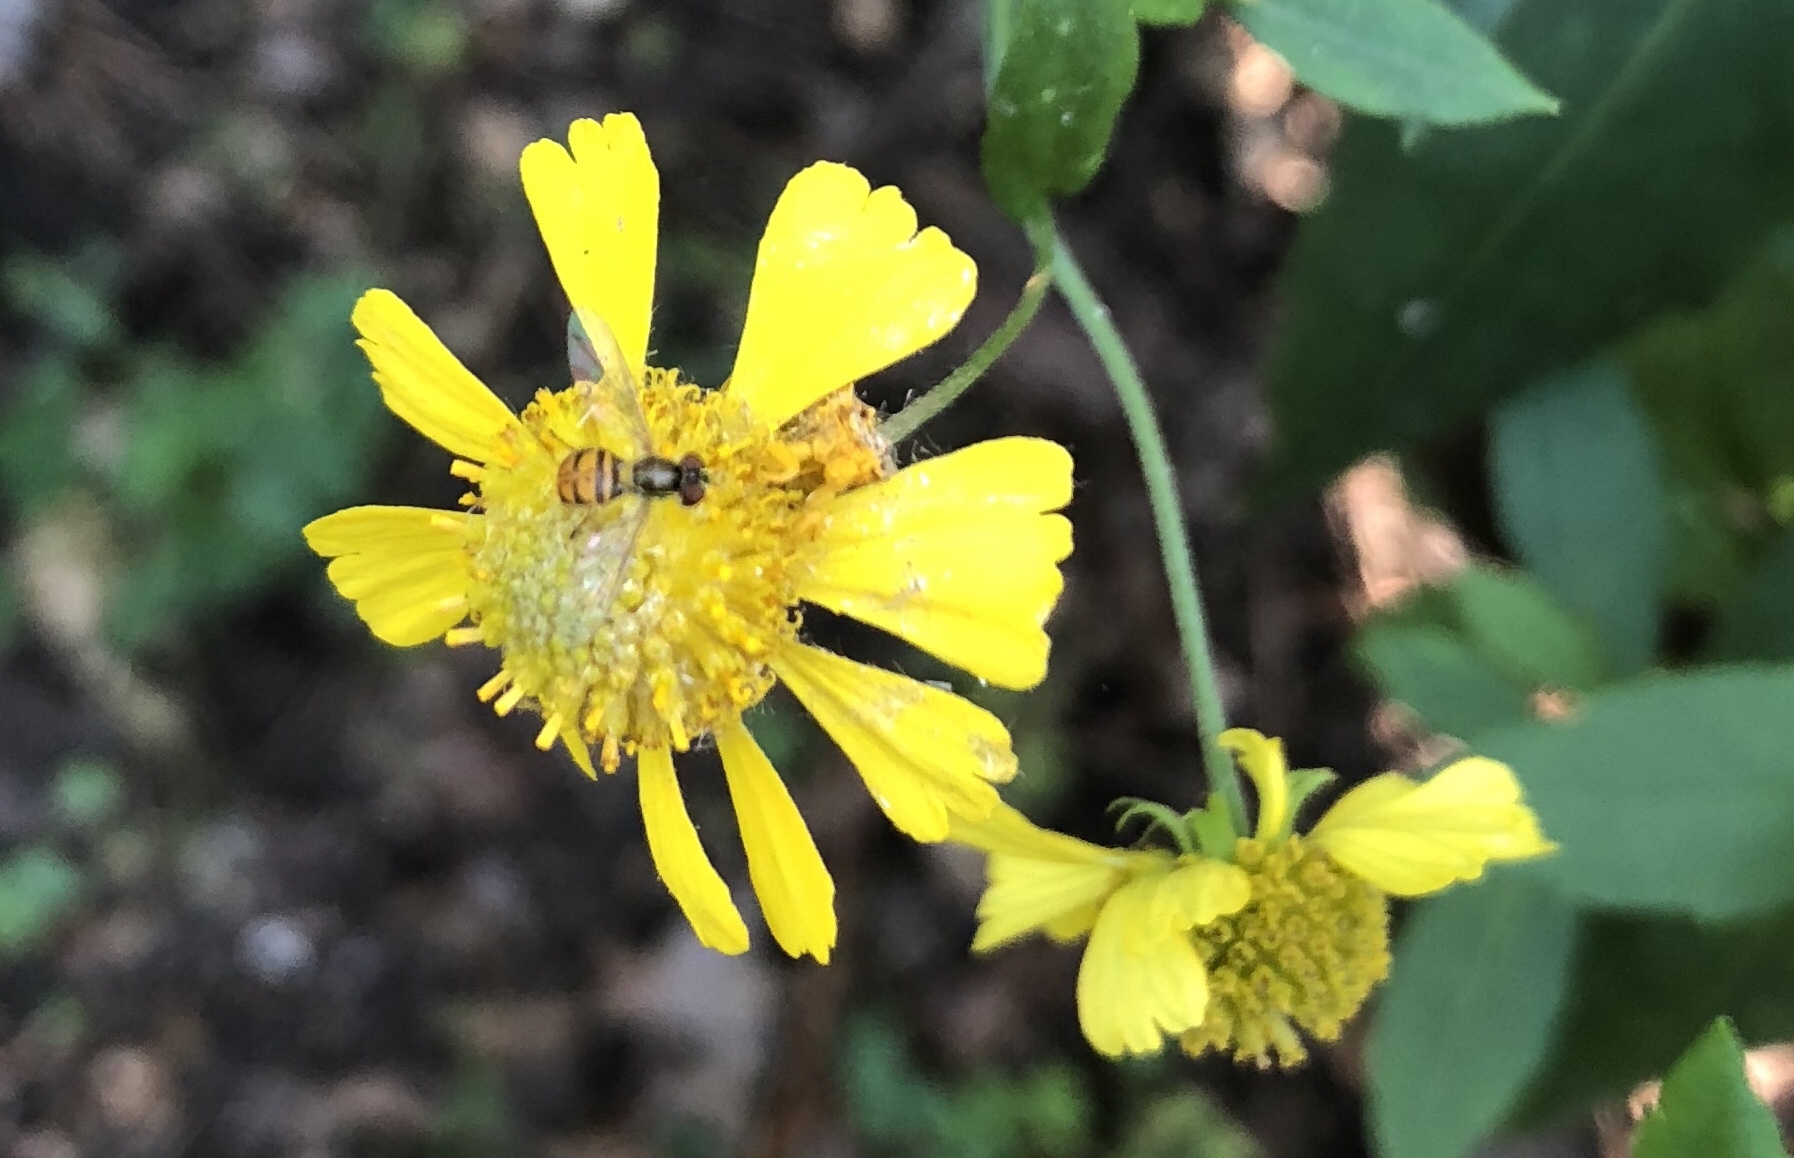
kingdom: Animalia
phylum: Arthropoda
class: Insecta
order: Diptera
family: Syrphidae
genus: Toxomerus
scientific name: Toxomerus marginatus
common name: Syrphid fly
